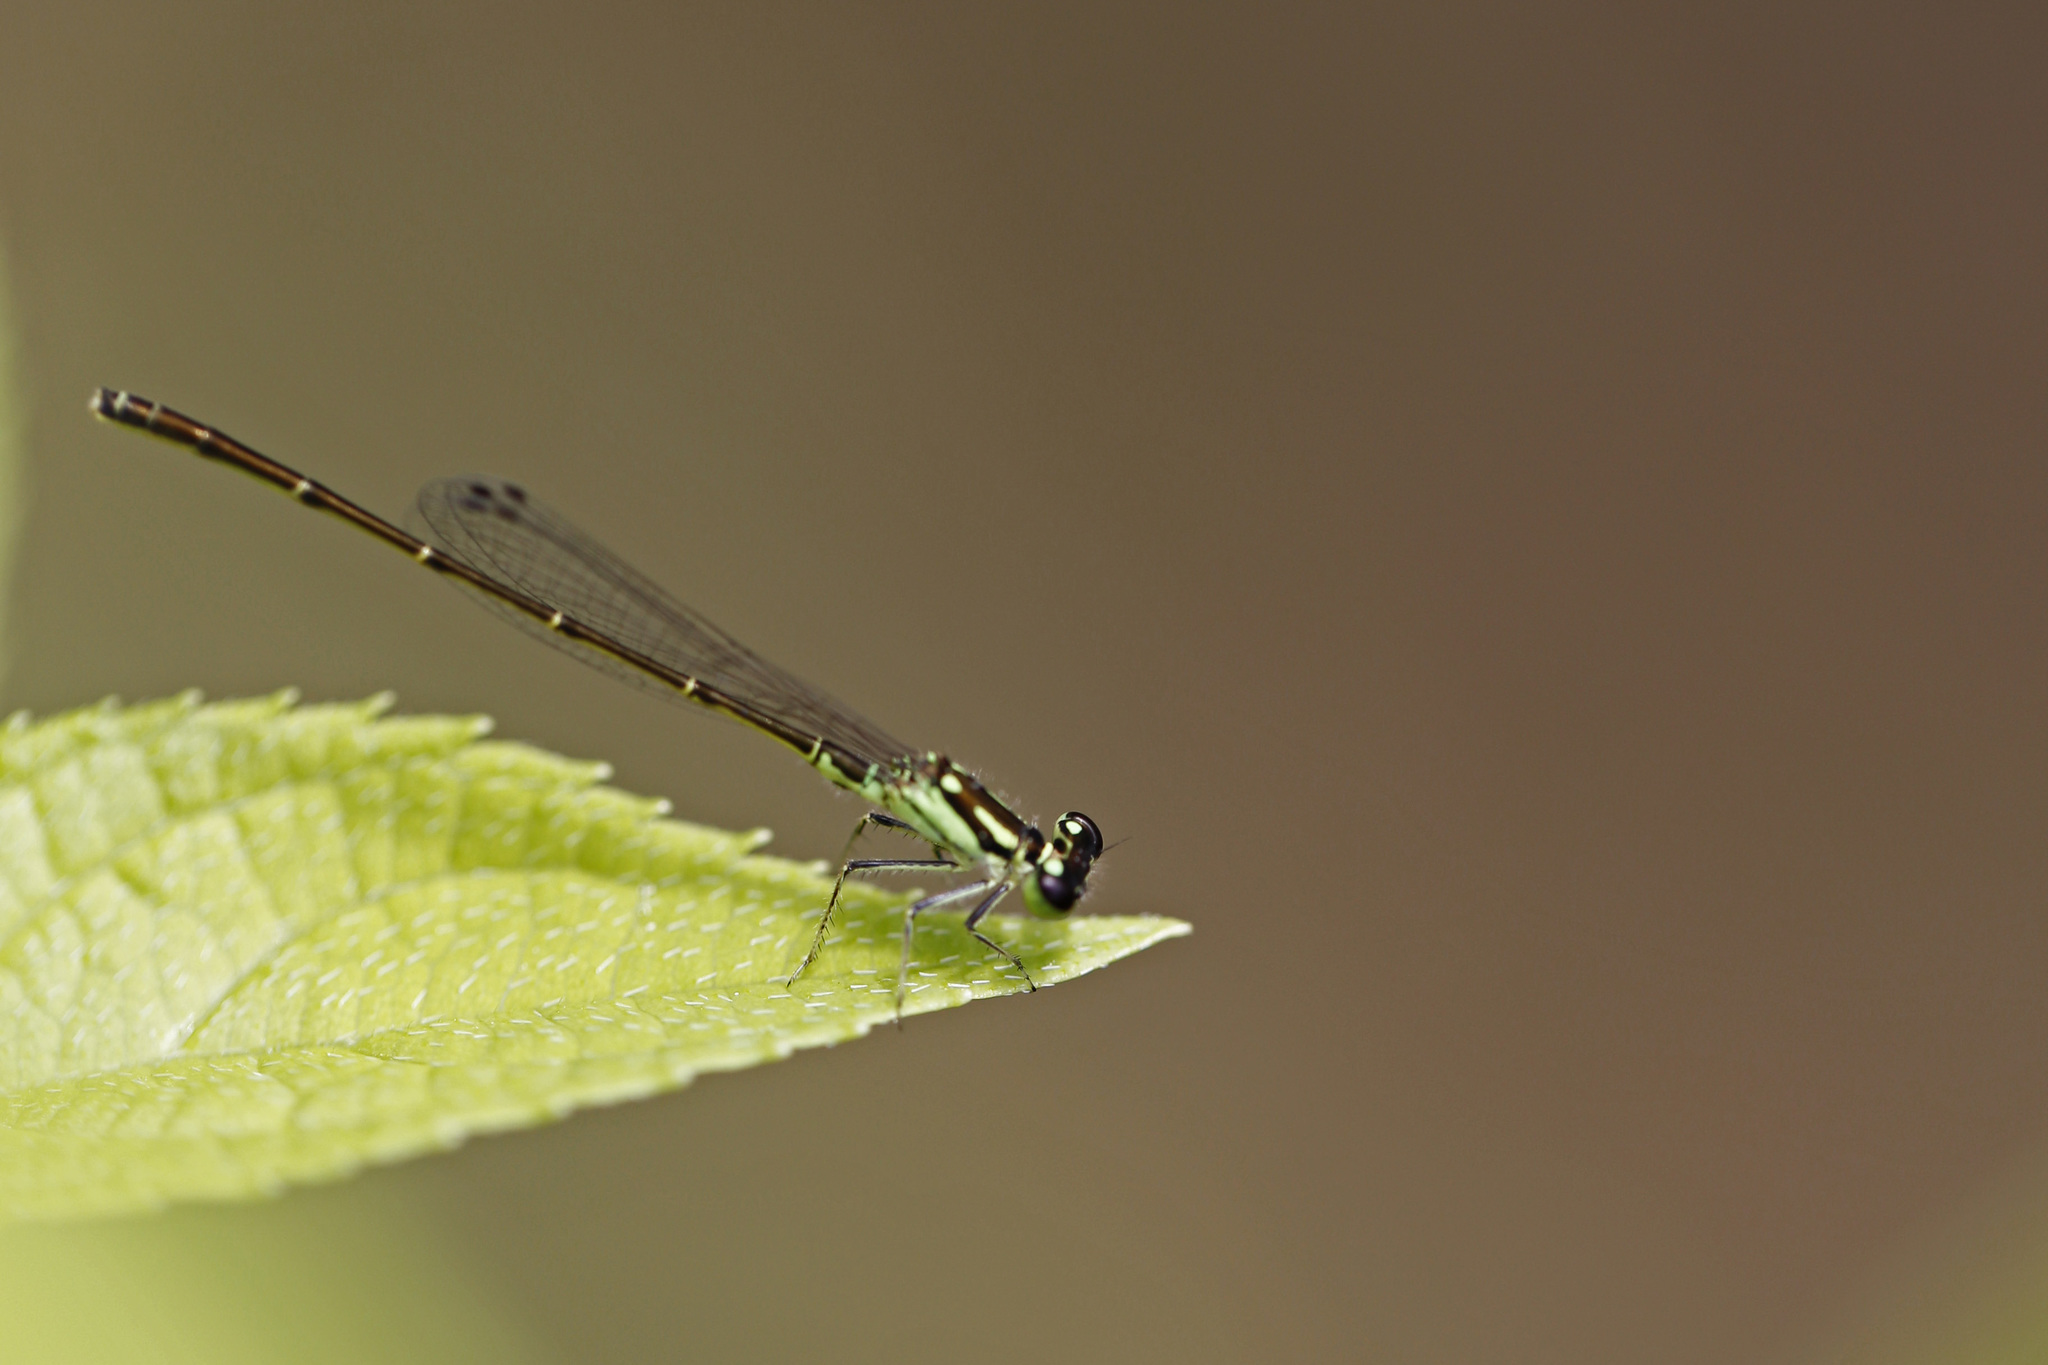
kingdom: Animalia
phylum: Arthropoda
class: Insecta
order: Odonata
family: Coenagrionidae
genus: Ischnura
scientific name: Ischnura posita
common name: Fragile forktail
